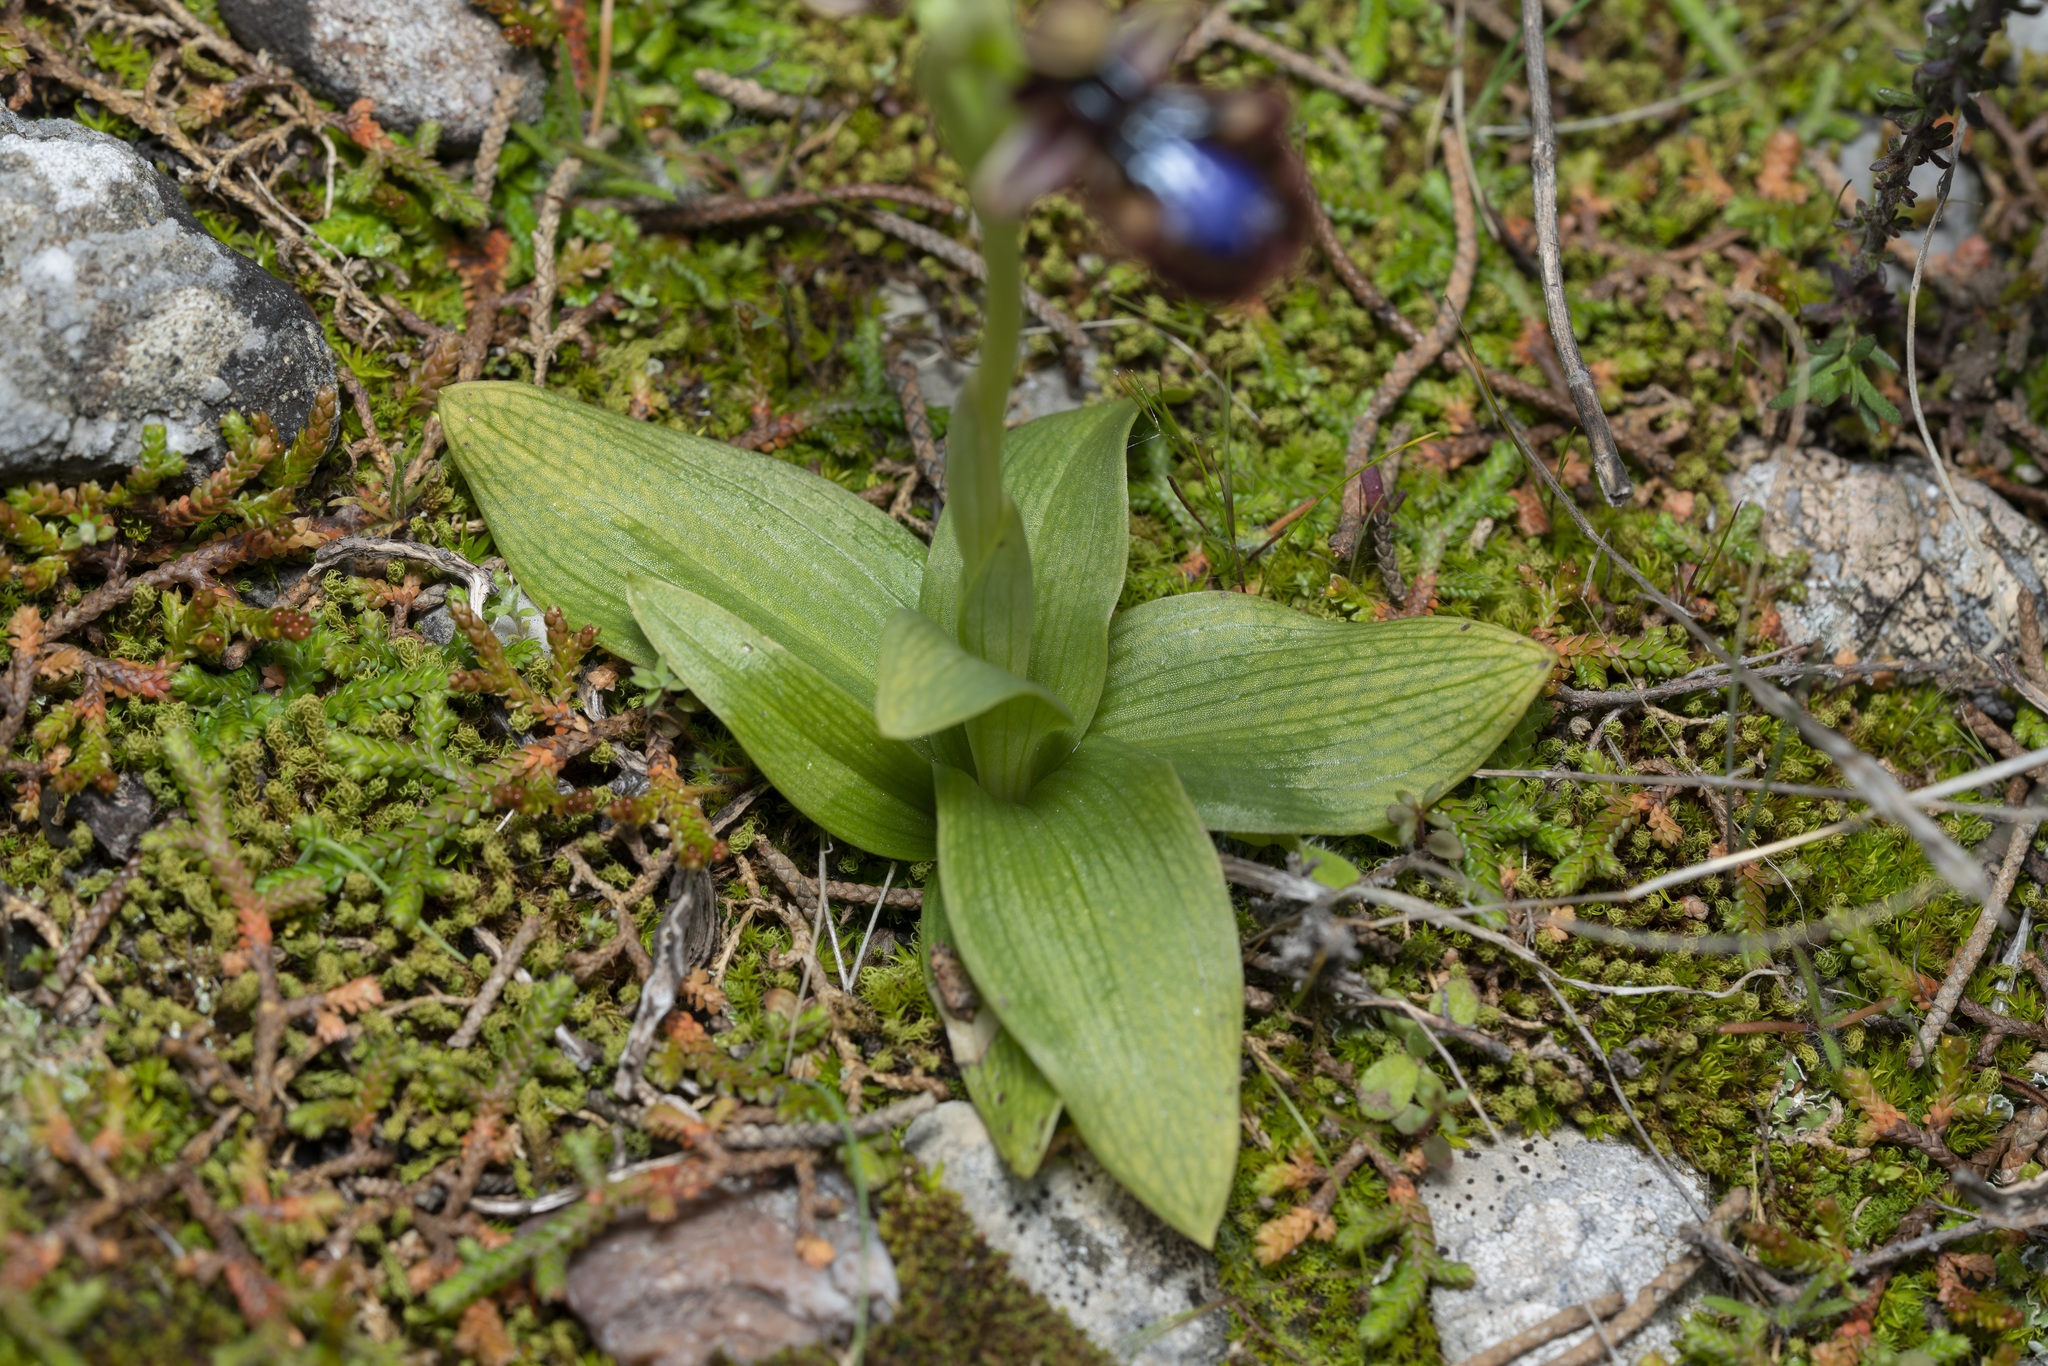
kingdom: Plantae
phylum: Tracheophyta
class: Liliopsida
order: Asparagales
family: Orchidaceae
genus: Ophrys
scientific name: Ophrys speculum
